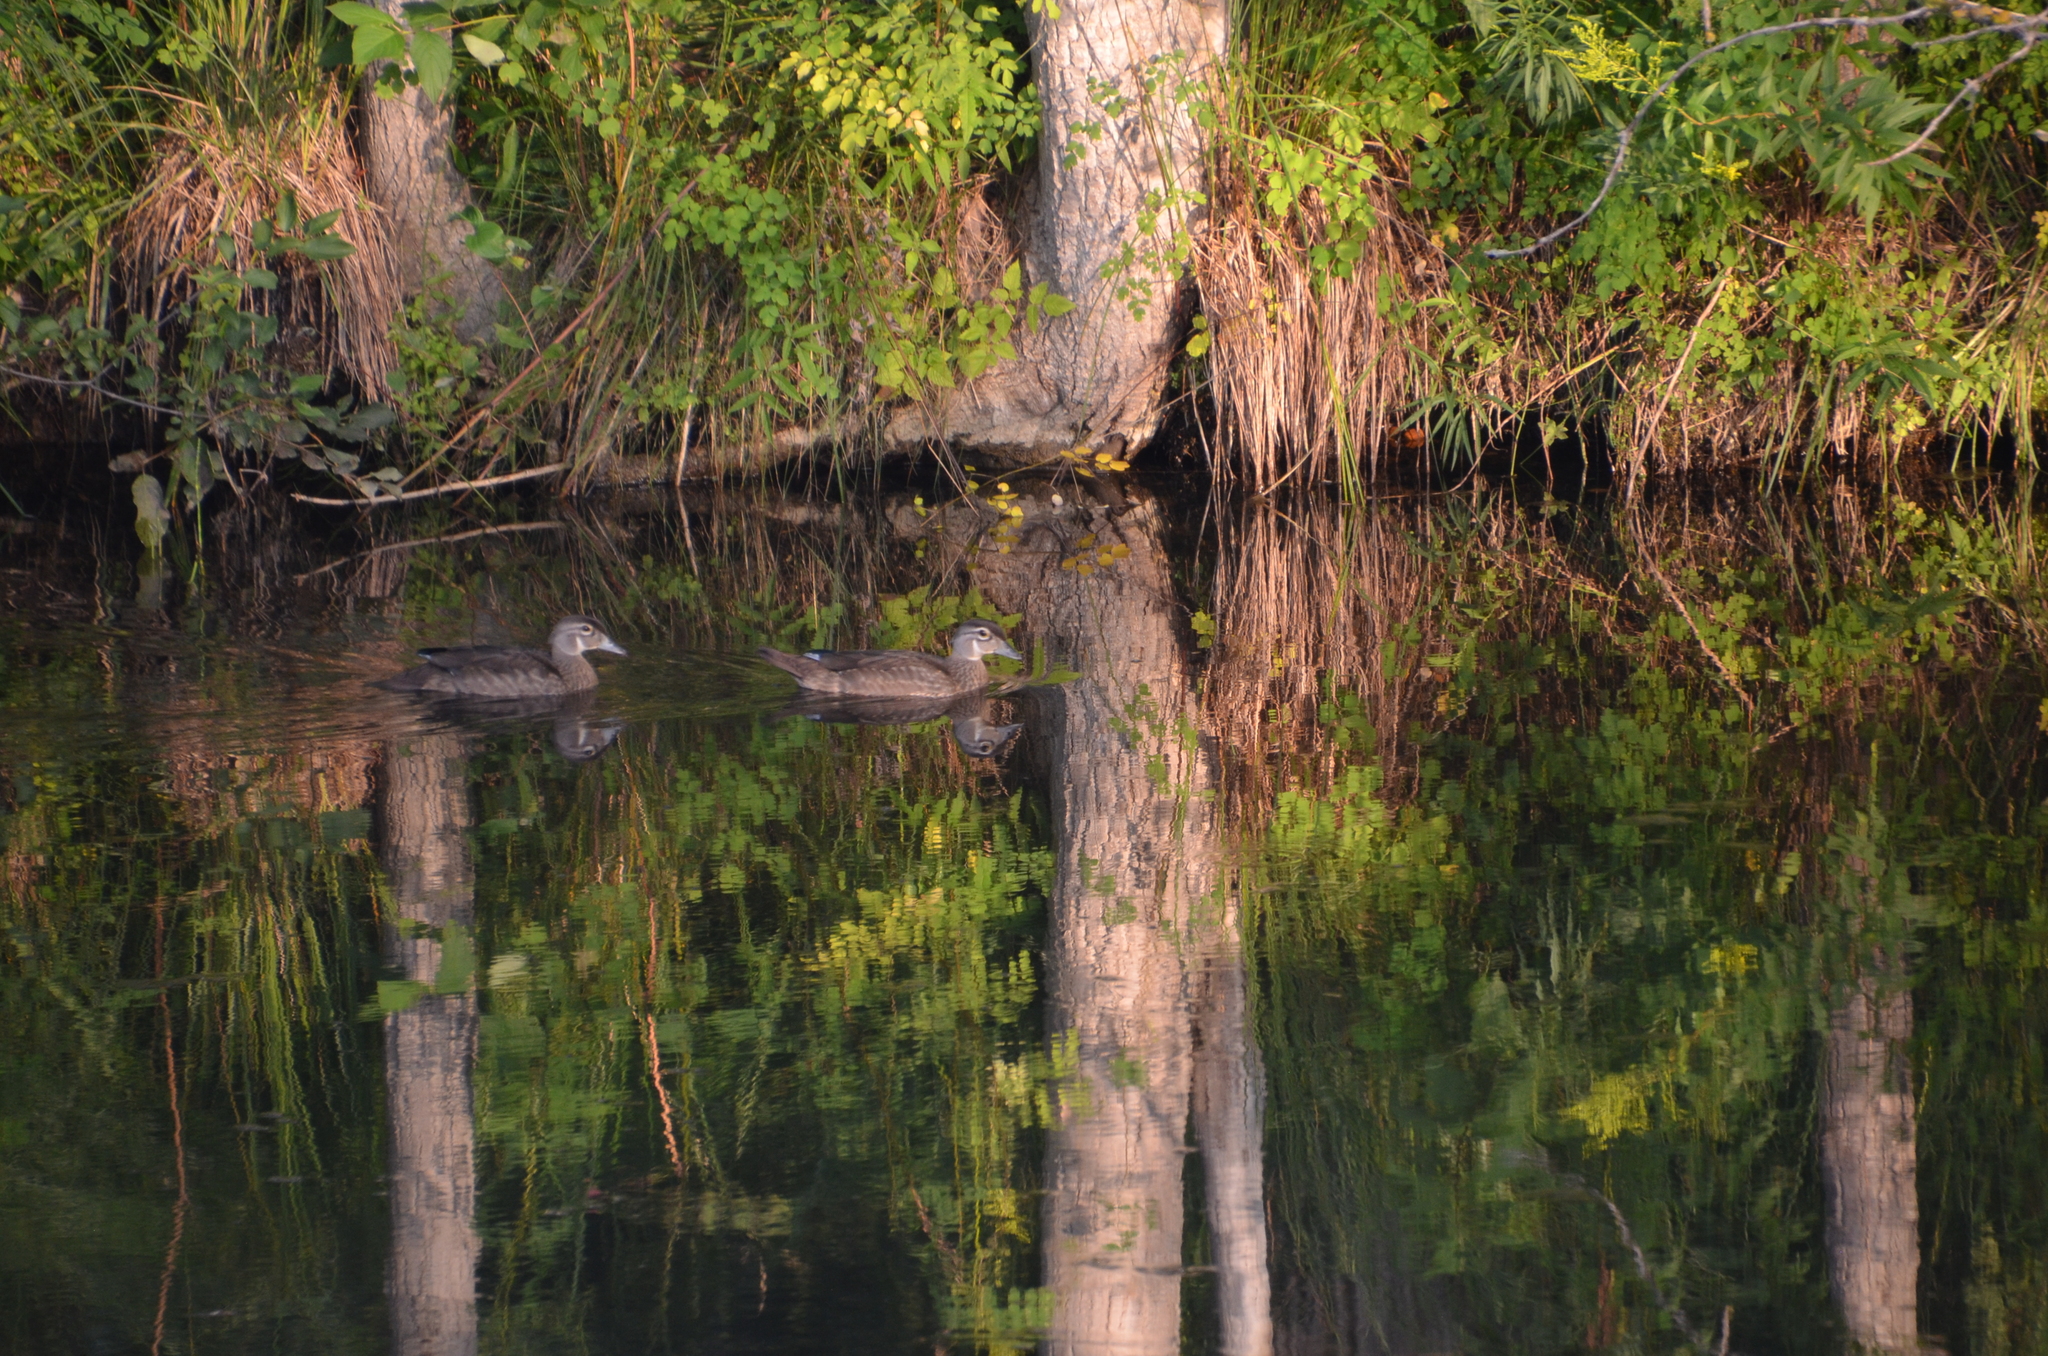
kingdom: Animalia
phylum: Chordata
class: Aves
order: Anseriformes
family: Anatidae
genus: Aix
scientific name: Aix sponsa
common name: Wood duck
